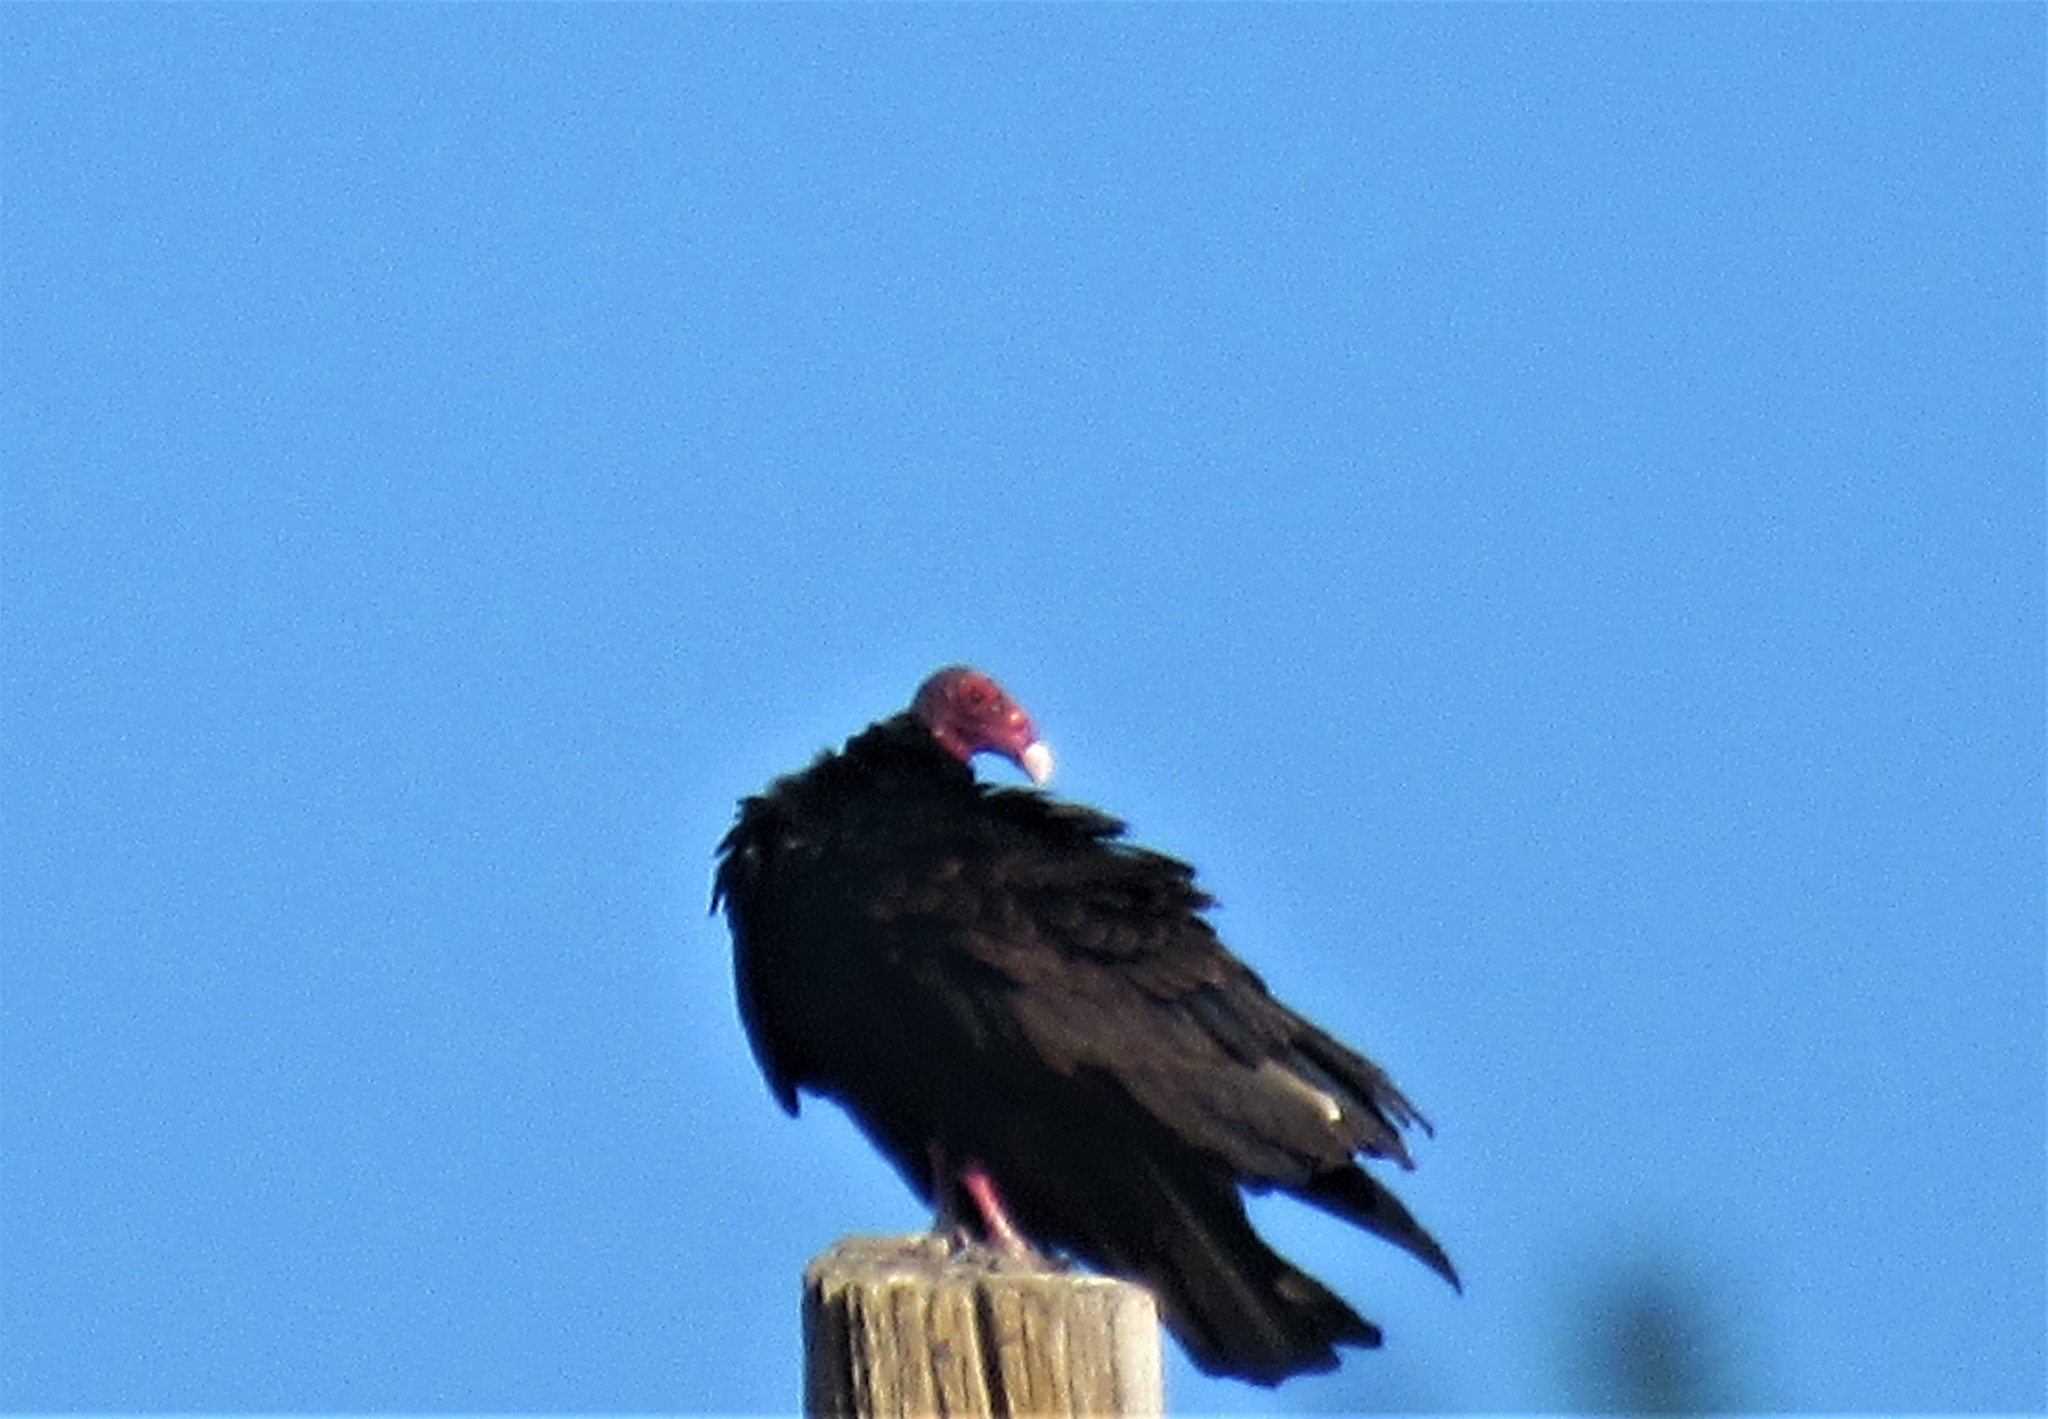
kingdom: Animalia
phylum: Chordata
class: Aves
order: Accipitriformes
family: Cathartidae
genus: Cathartes
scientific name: Cathartes aura
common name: Turkey vulture
